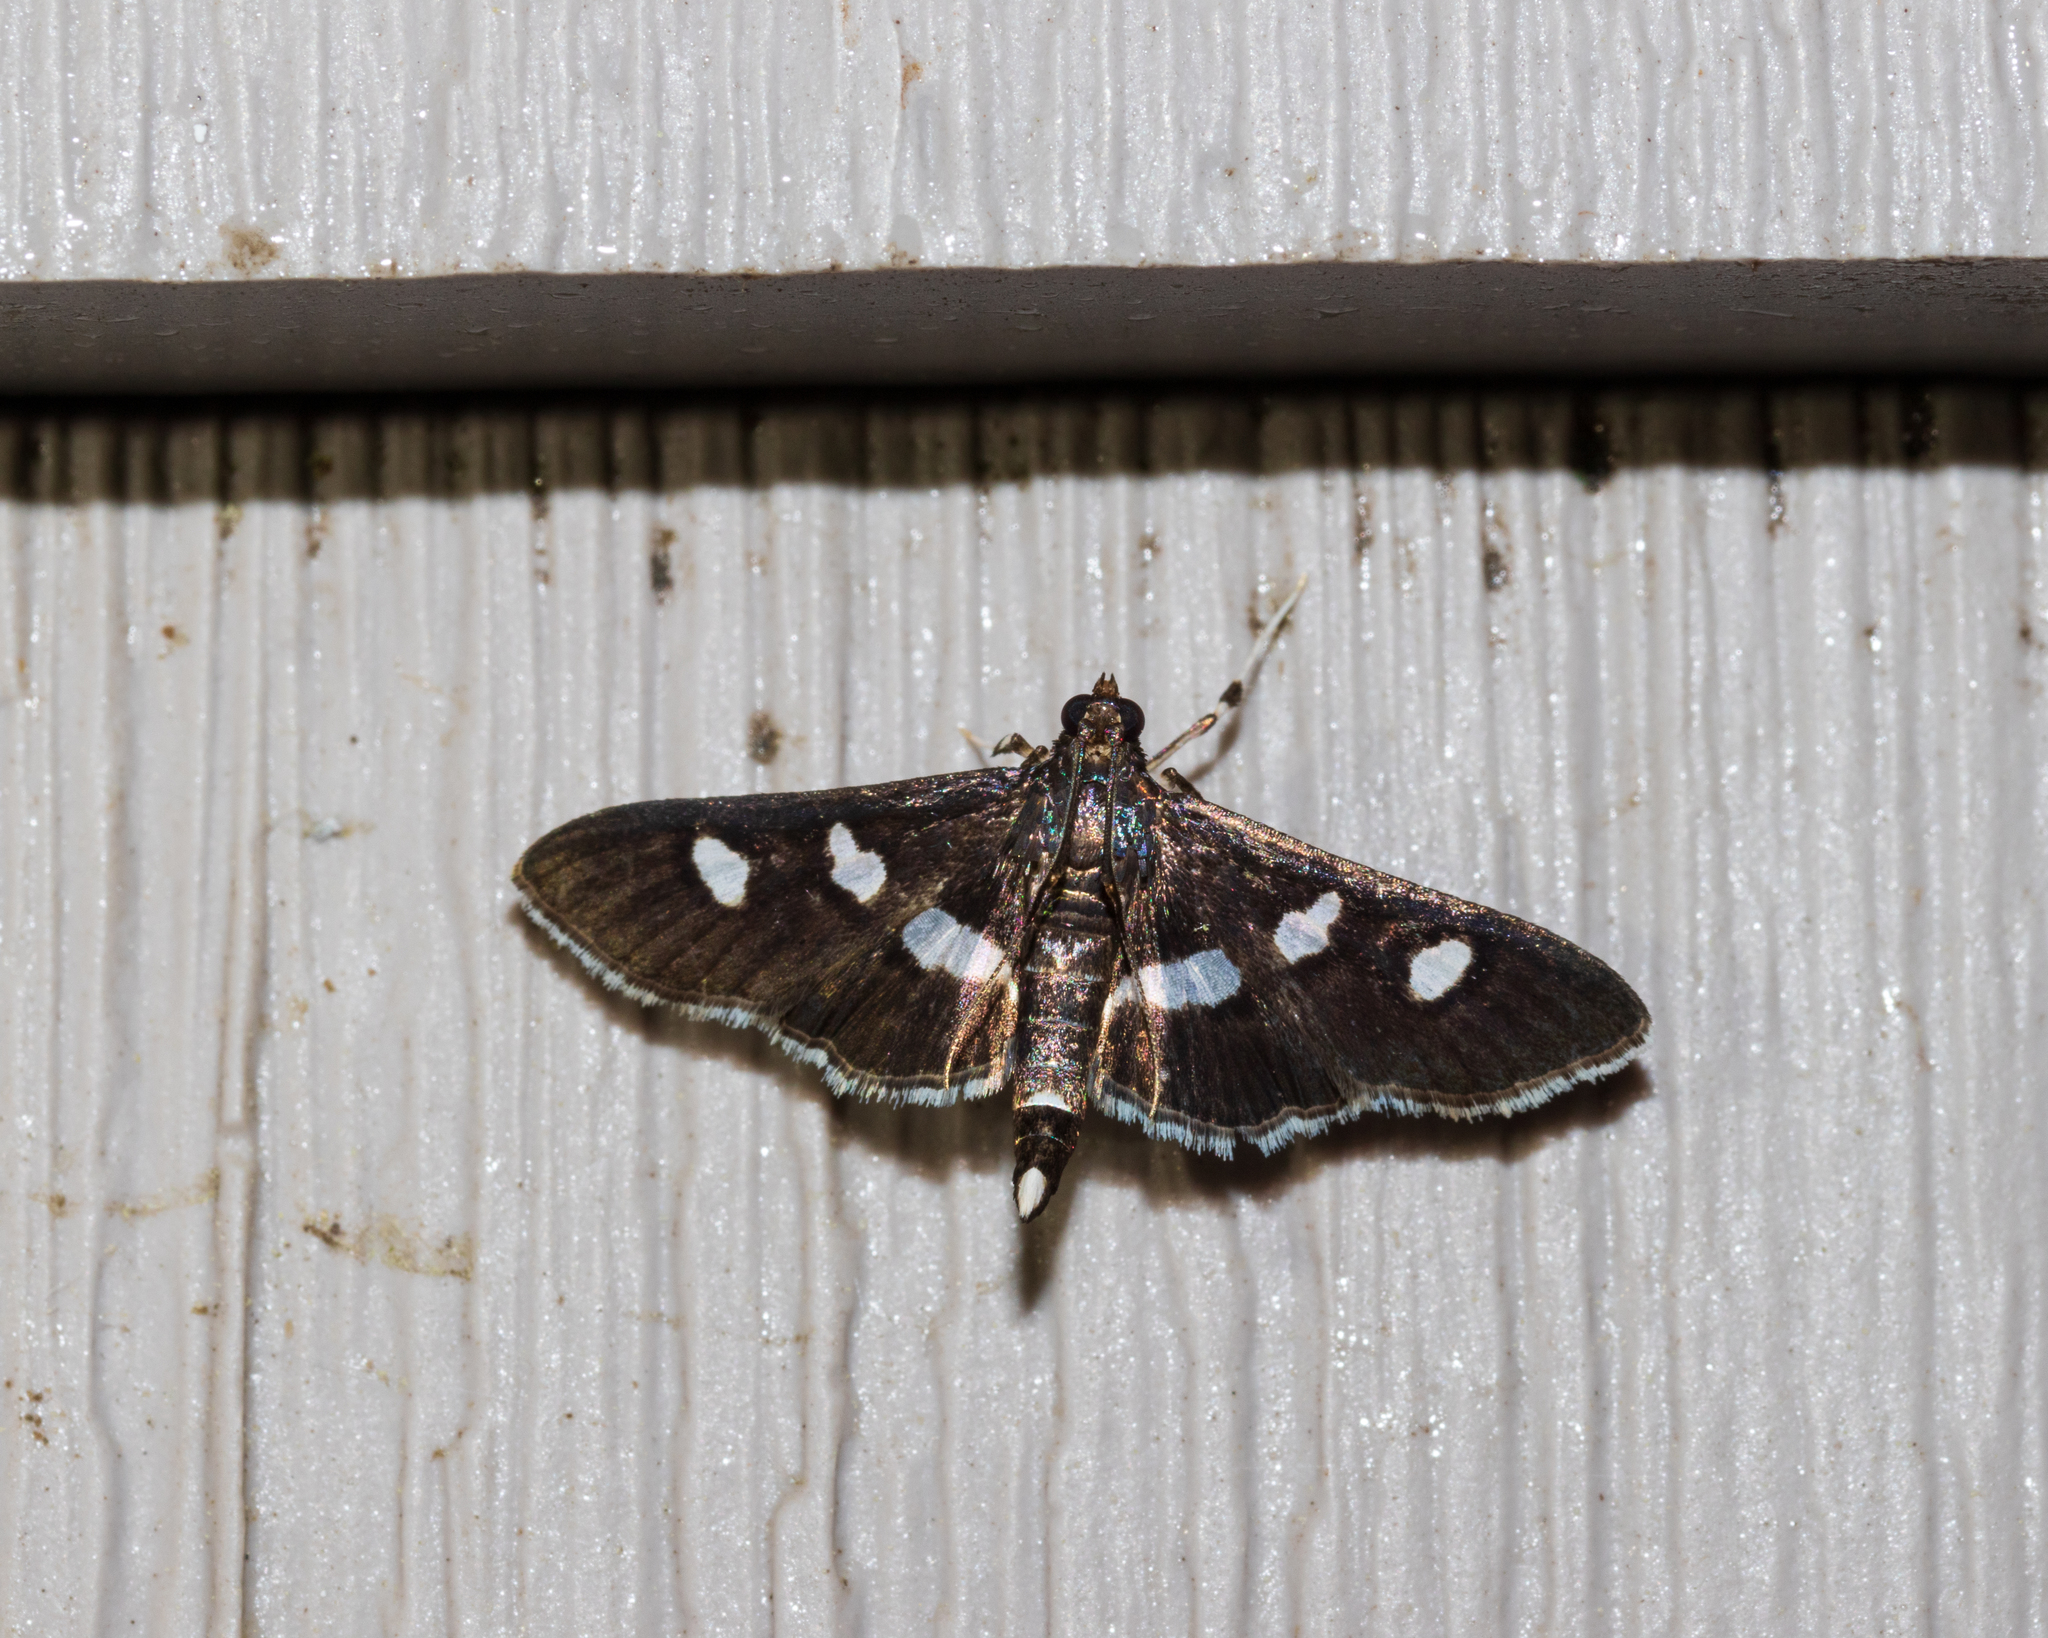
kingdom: Animalia
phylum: Arthropoda
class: Insecta
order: Lepidoptera
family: Crambidae
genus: Desmia
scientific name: Desmia
